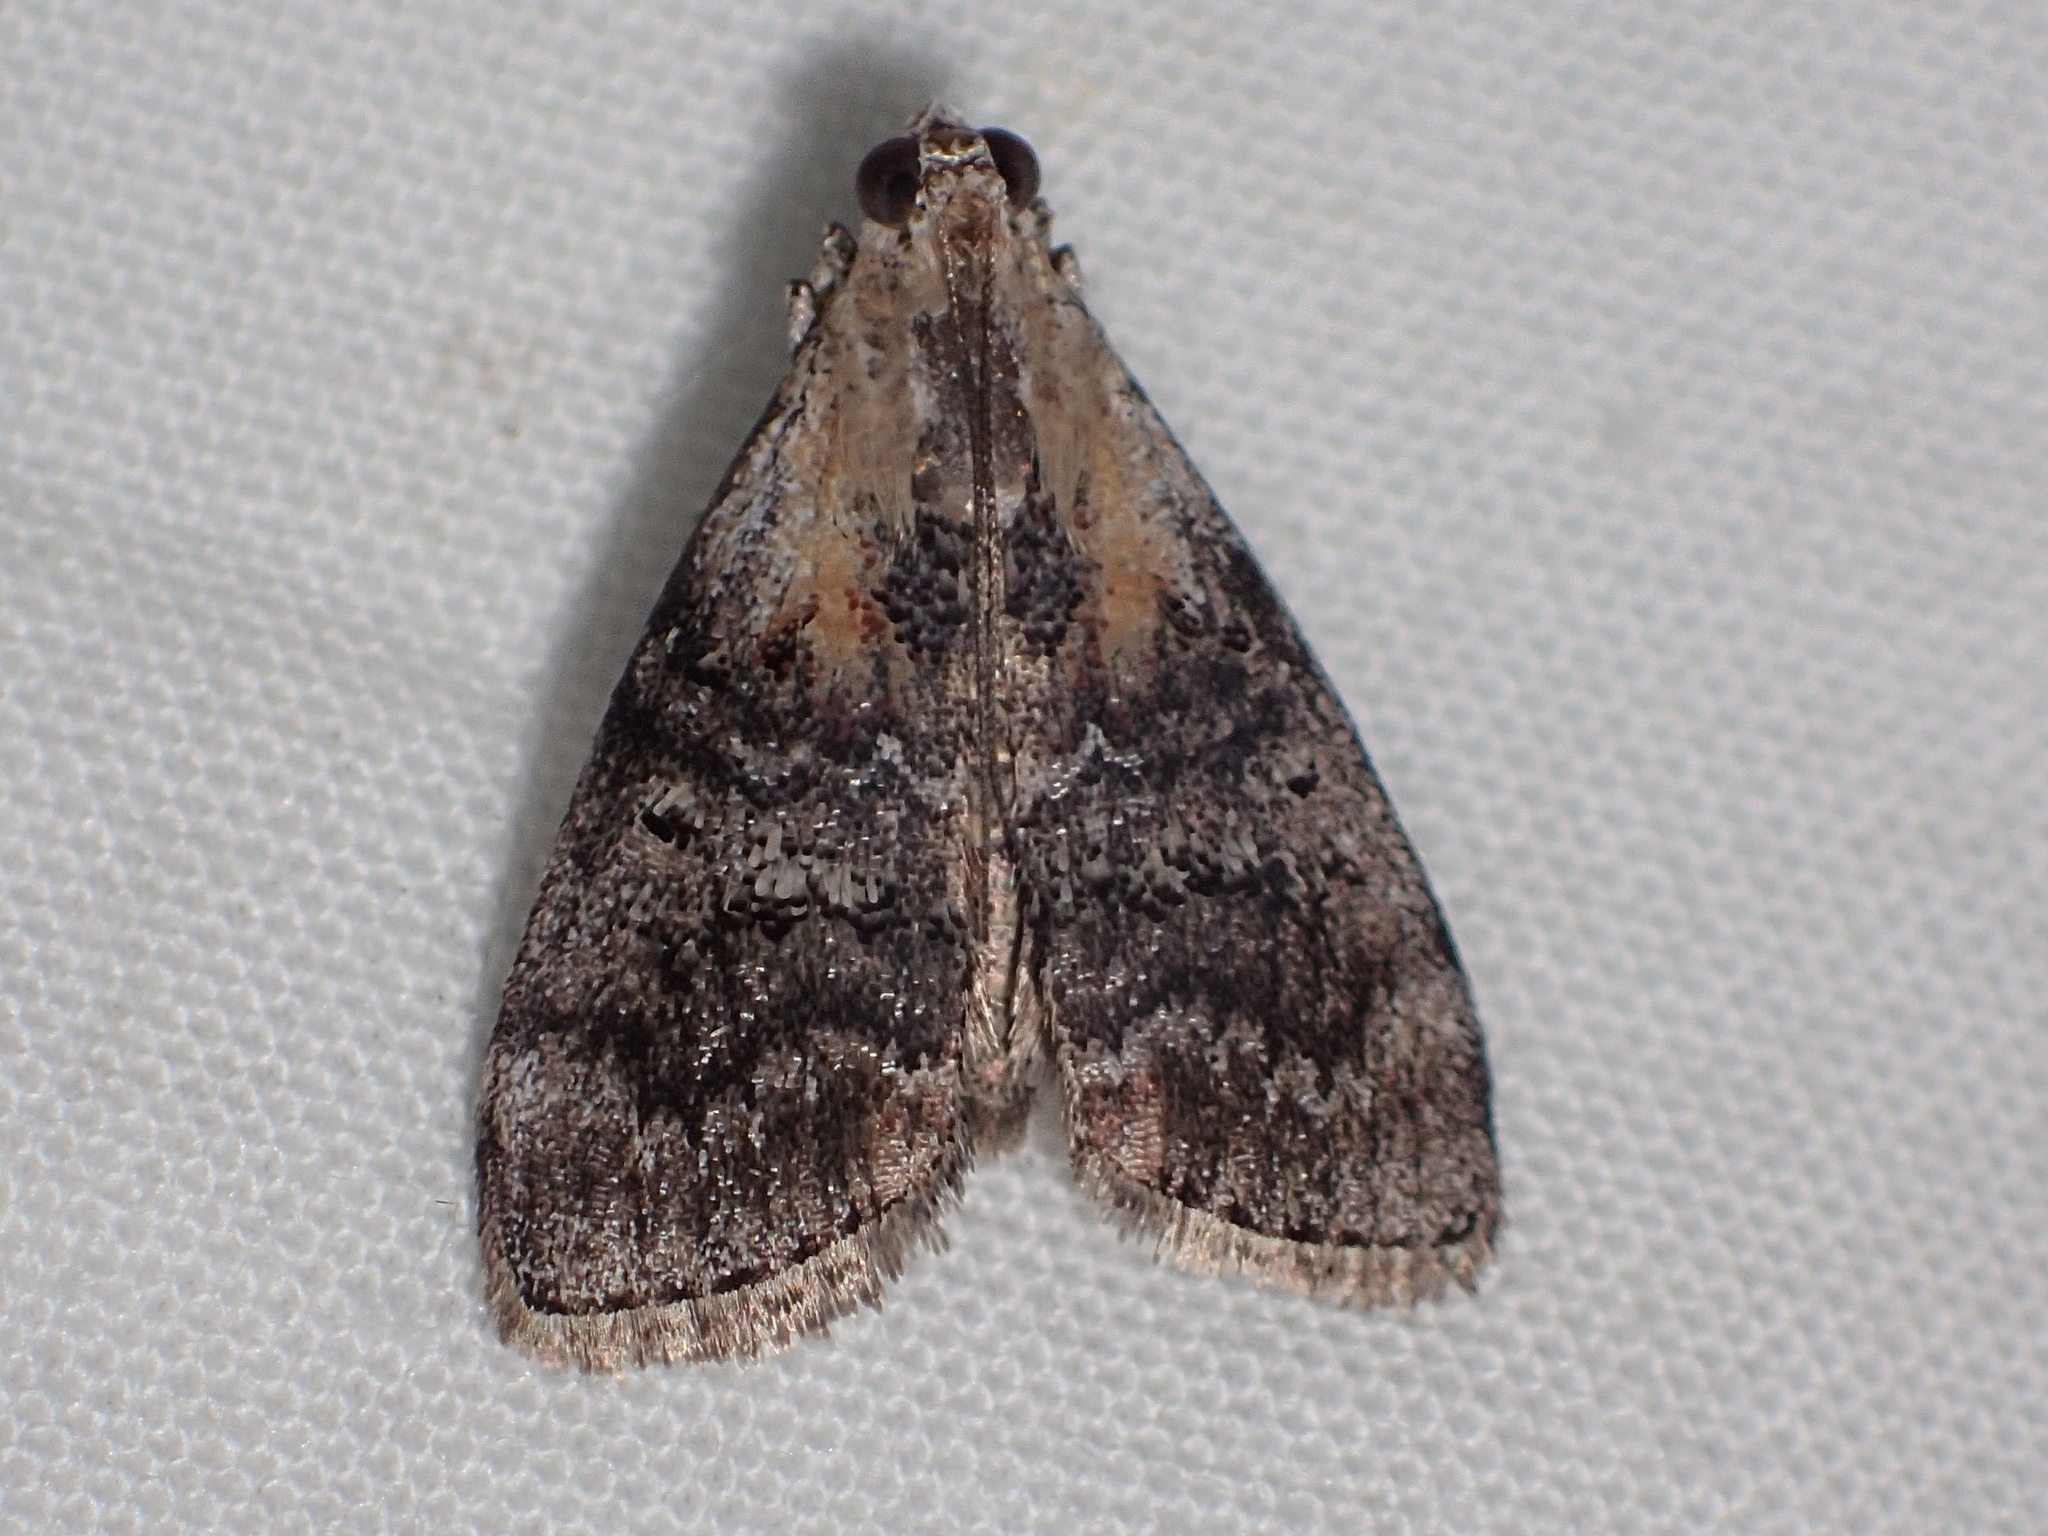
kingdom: Animalia
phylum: Arthropoda
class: Insecta
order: Lepidoptera
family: Pyralidae
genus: Pococera
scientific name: Pococera expandens
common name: Striped oak webworm moth
